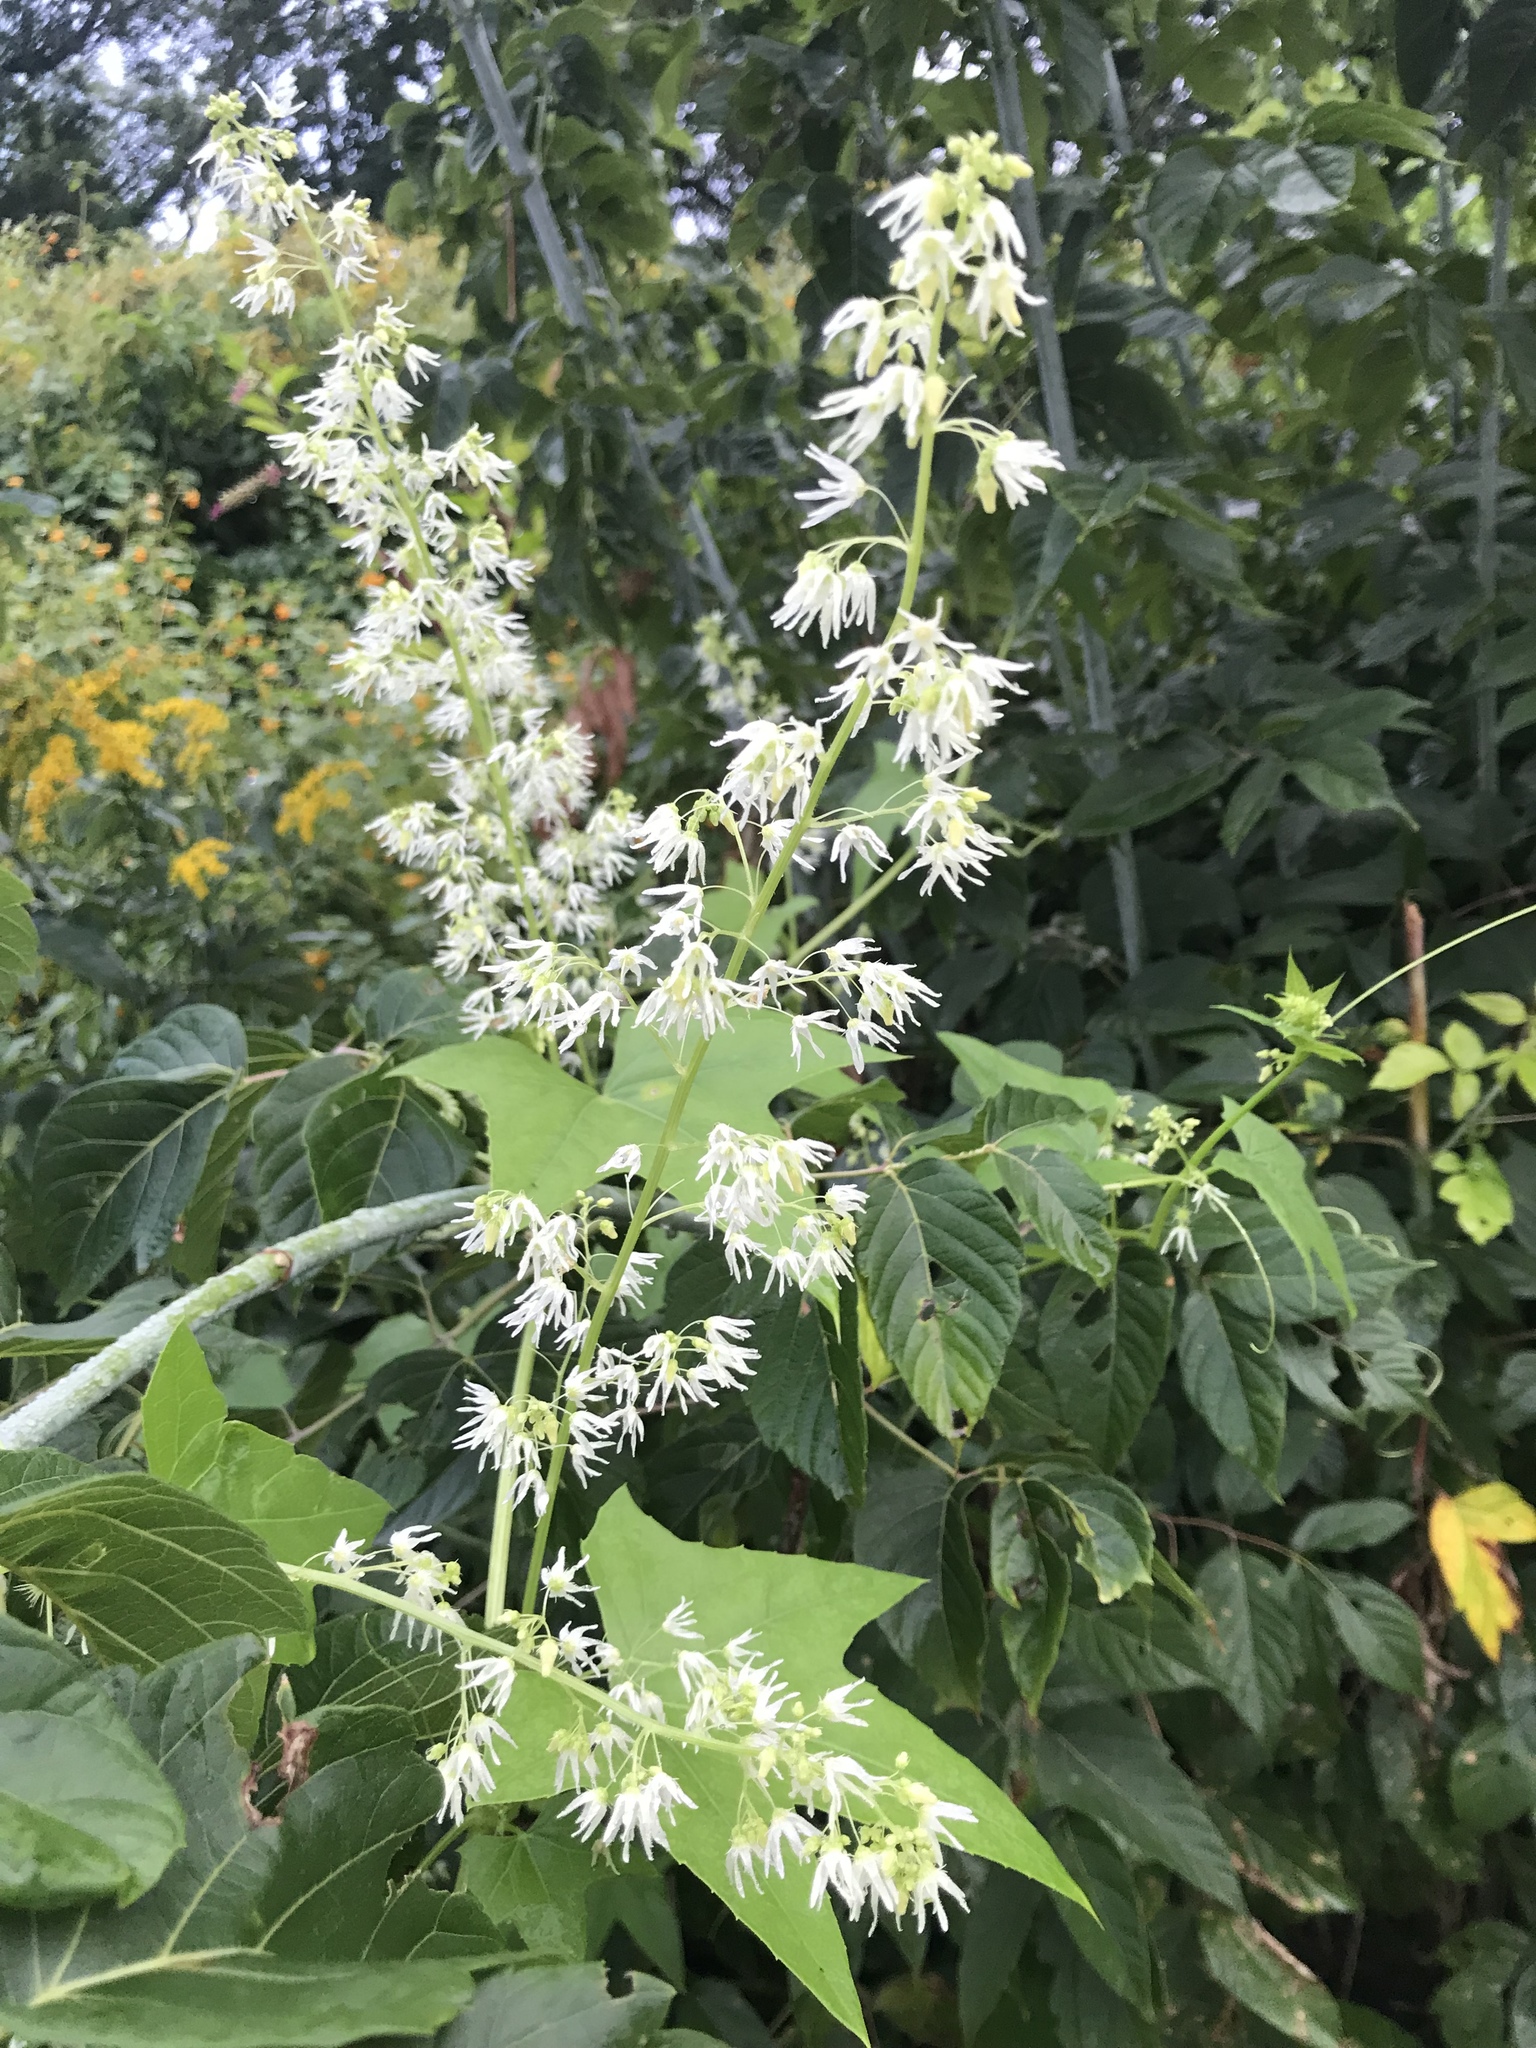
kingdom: Plantae
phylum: Tracheophyta
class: Magnoliopsida
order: Cucurbitales
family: Cucurbitaceae
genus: Echinocystis
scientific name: Echinocystis lobata
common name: Wild cucumber
